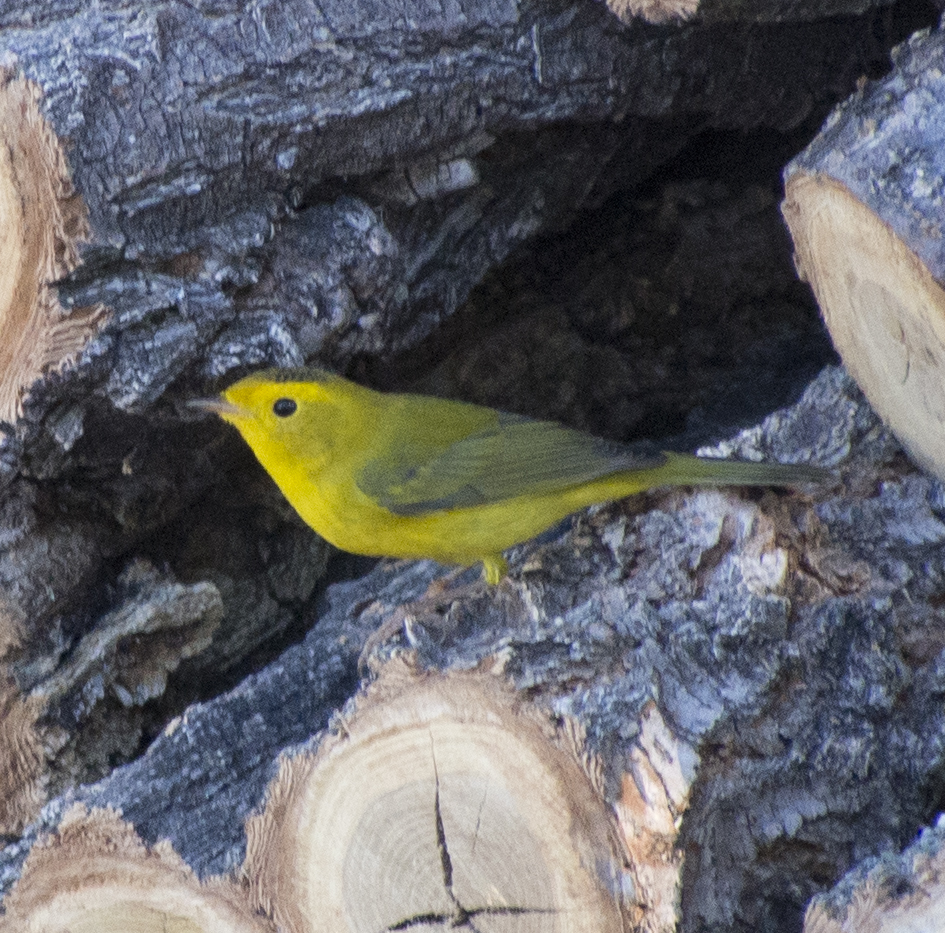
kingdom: Animalia
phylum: Chordata
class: Aves
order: Passeriformes
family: Parulidae
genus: Cardellina
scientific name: Cardellina pusilla
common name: Wilson's warbler
